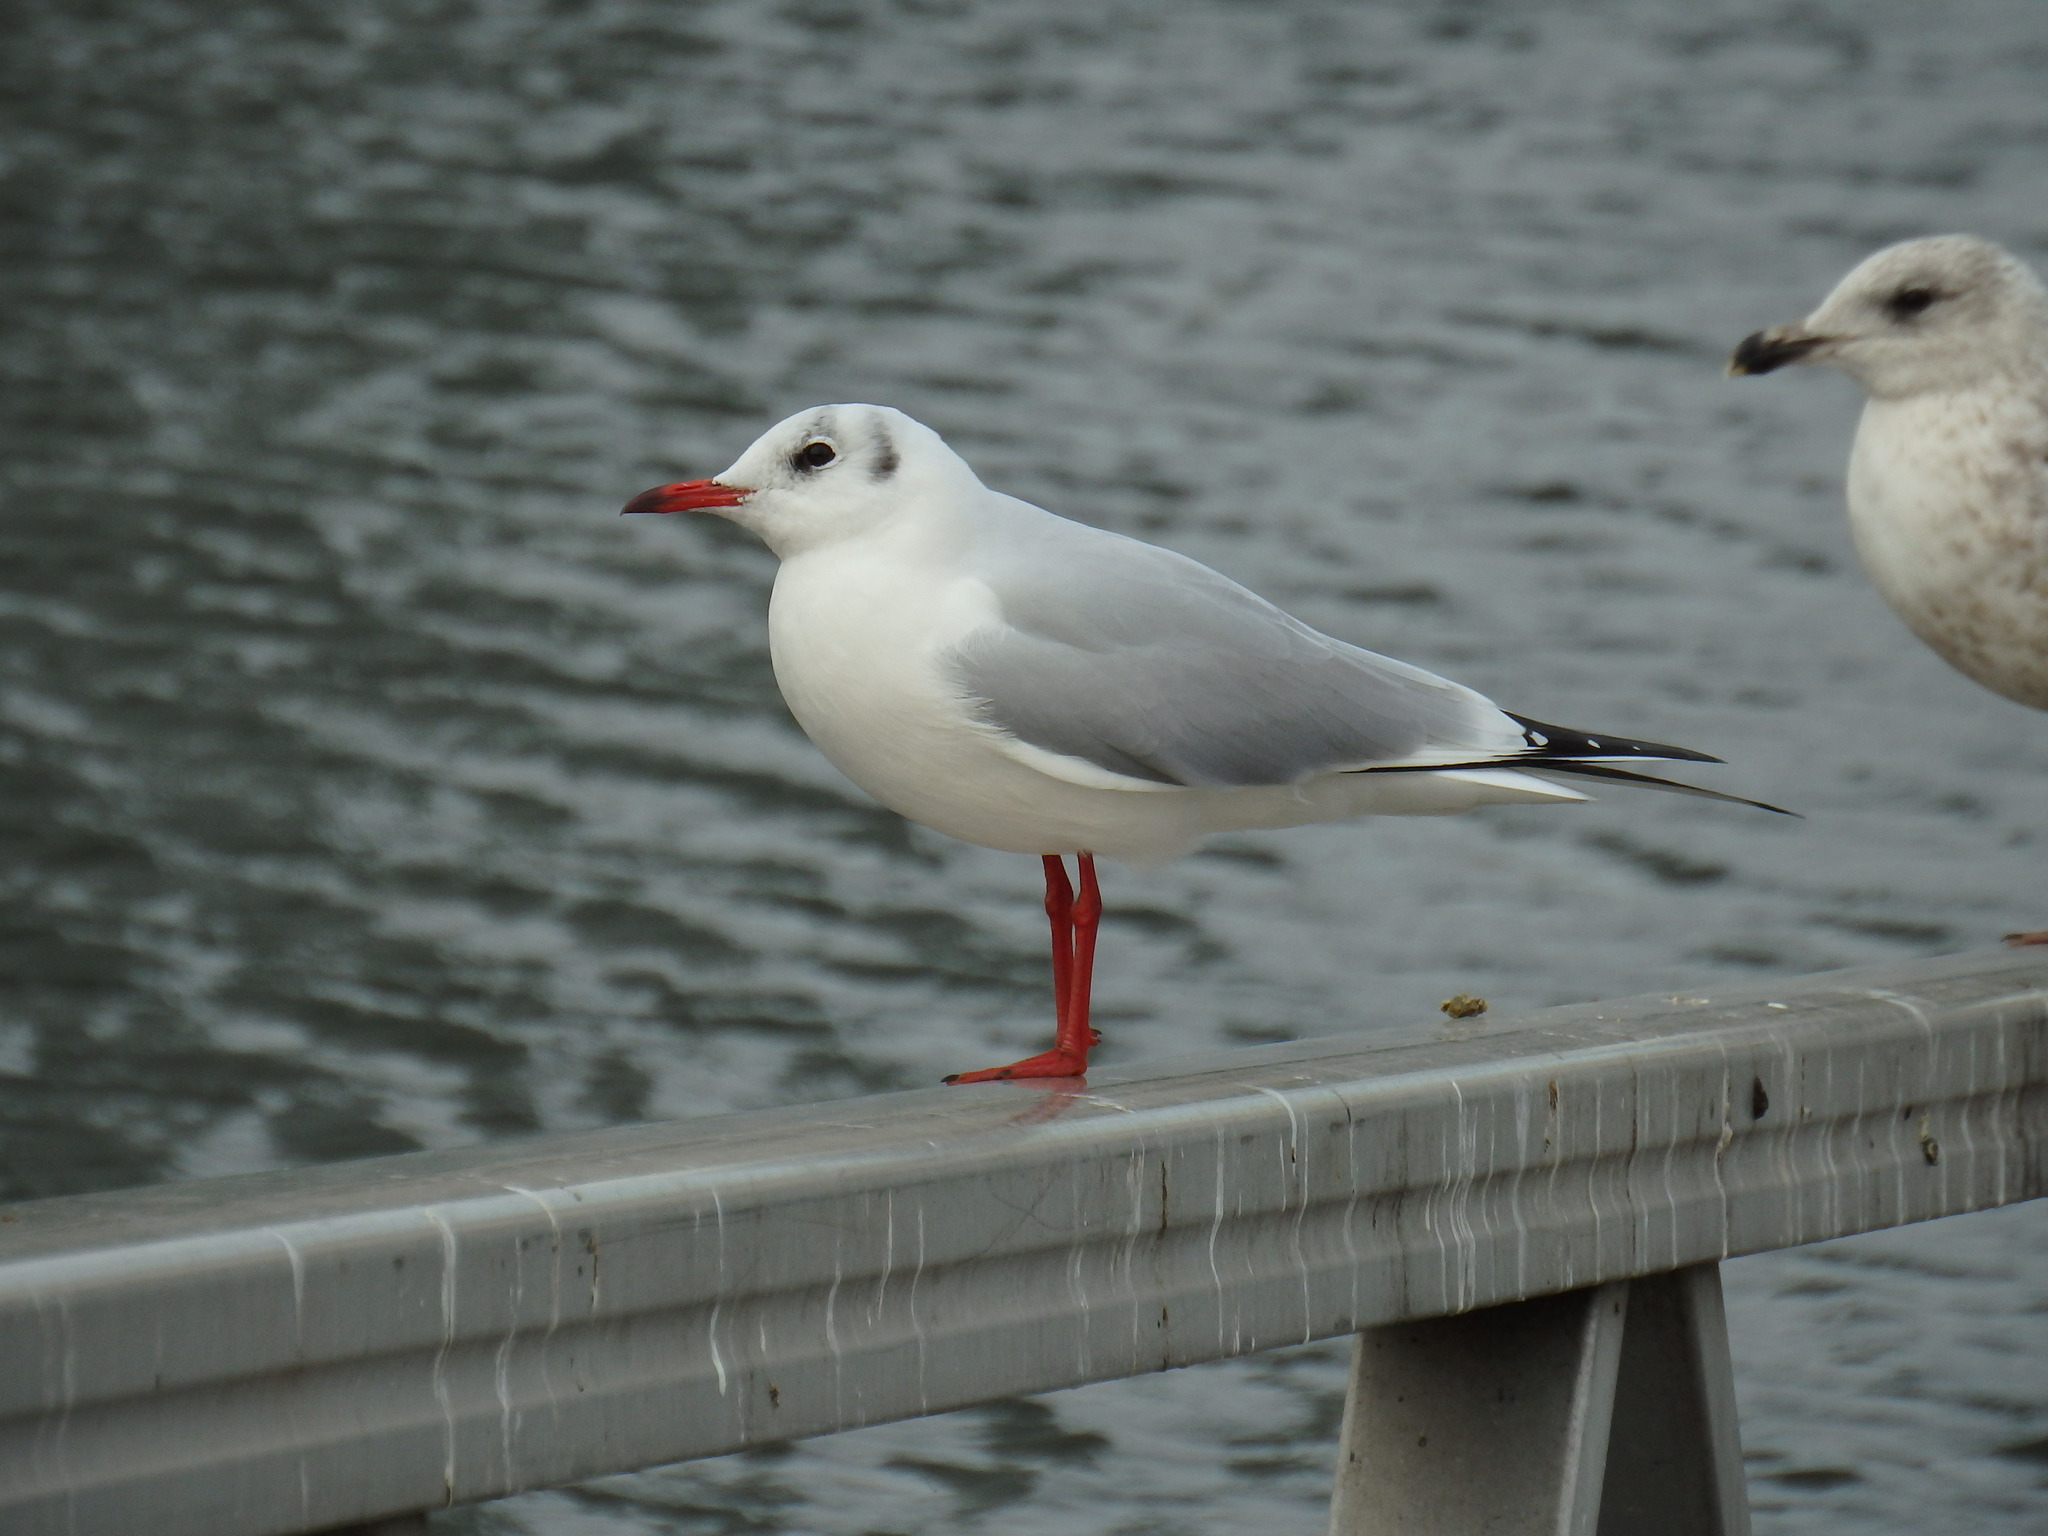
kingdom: Animalia
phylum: Chordata
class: Aves
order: Charadriiformes
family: Laridae
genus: Chroicocephalus
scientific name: Chroicocephalus ridibundus
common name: Black-headed gull
